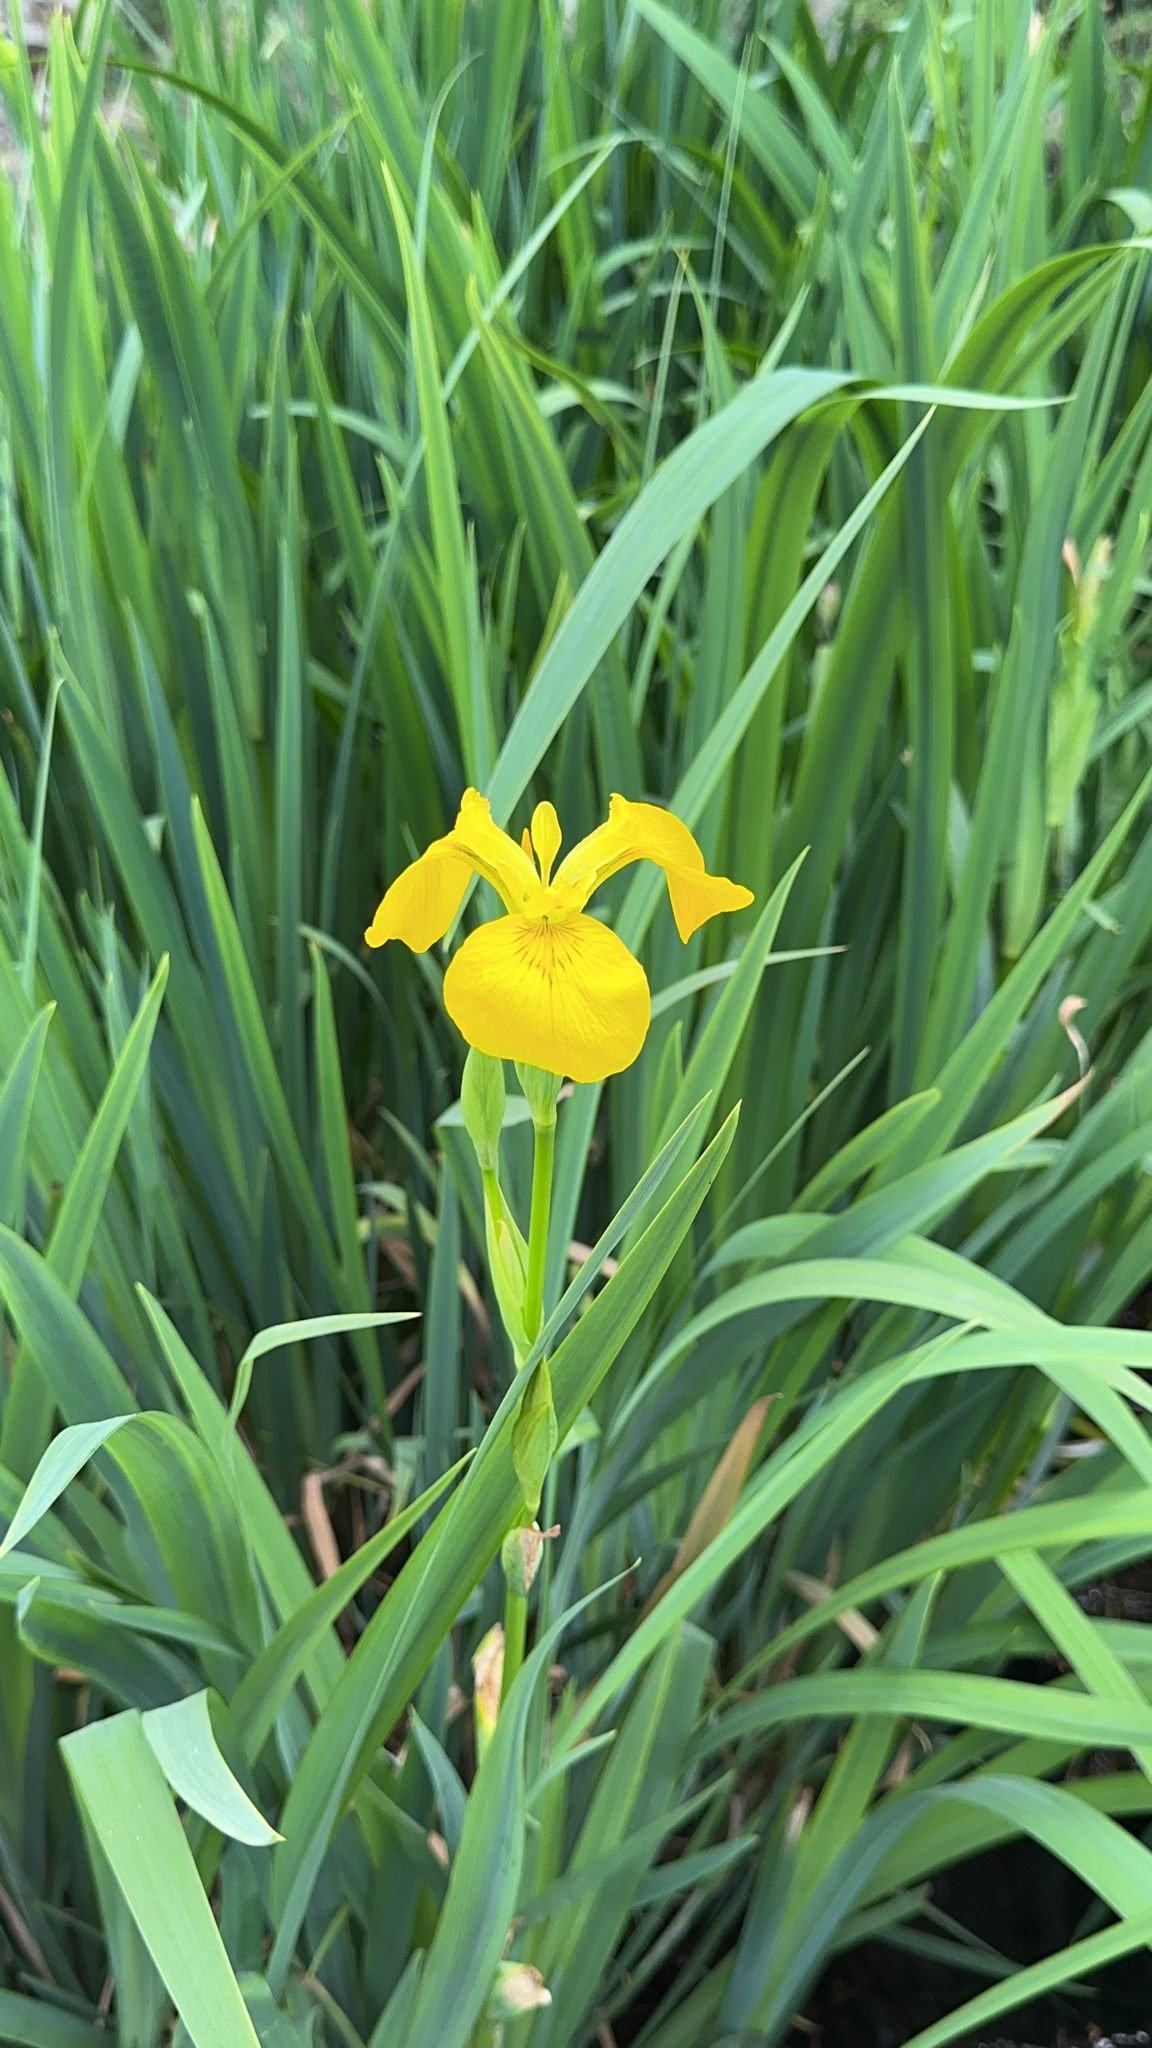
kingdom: Plantae
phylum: Tracheophyta
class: Liliopsida
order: Asparagales
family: Iridaceae
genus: Iris
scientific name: Iris pseudacorus
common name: Yellow flag
